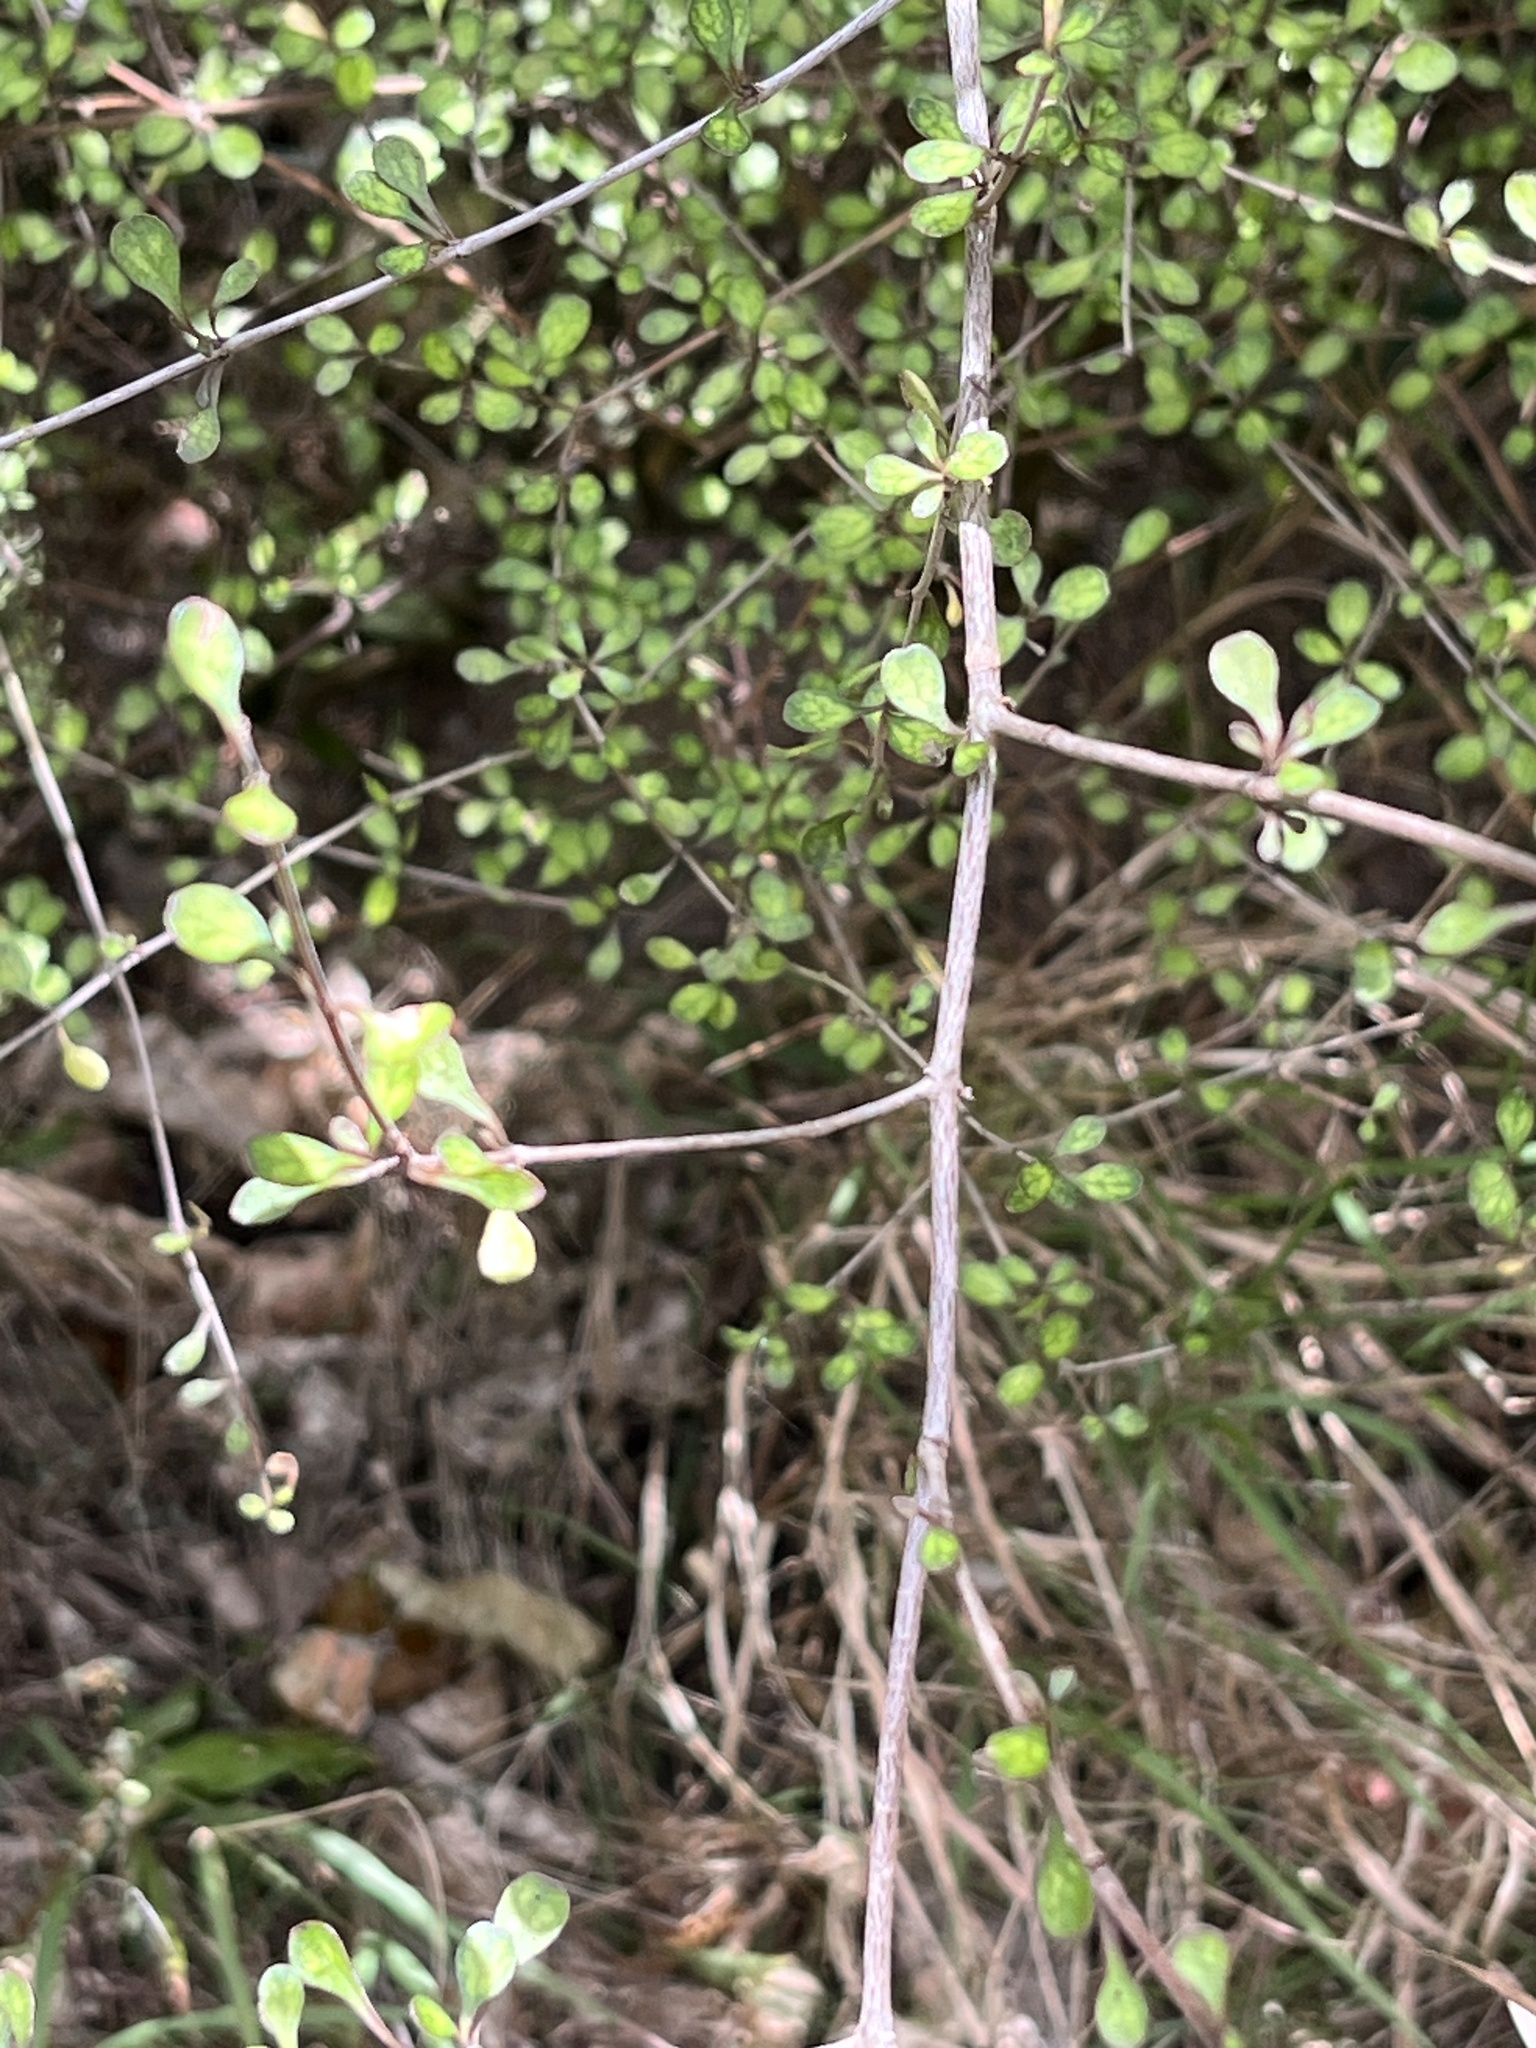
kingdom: Plantae
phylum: Tracheophyta
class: Magnoliopsida
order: Gentianales
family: Rubiaceae
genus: Coprosma
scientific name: Coprosma tenuicaulis
